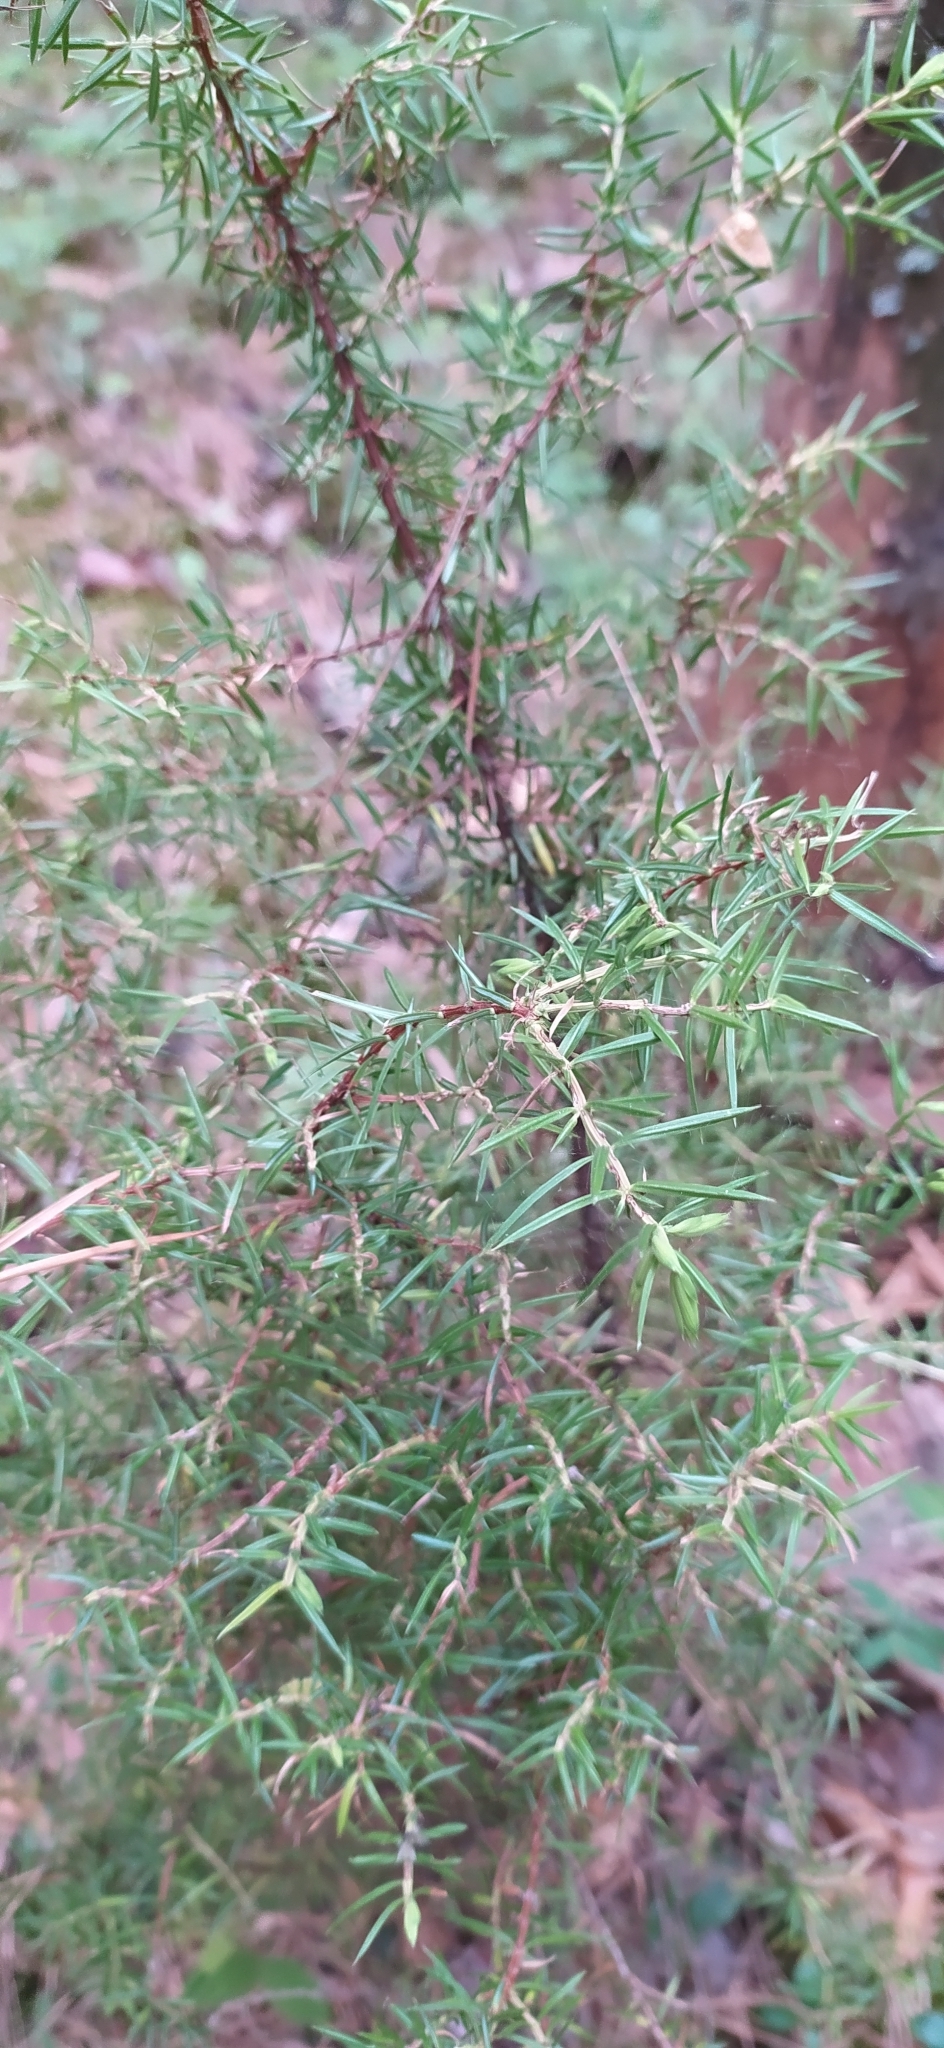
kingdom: Plantae
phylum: Tracheophyta
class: Pinopsida
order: Pinales
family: Cupressaceae
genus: Juniperus
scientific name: Juniperus communis
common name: Common juniper
